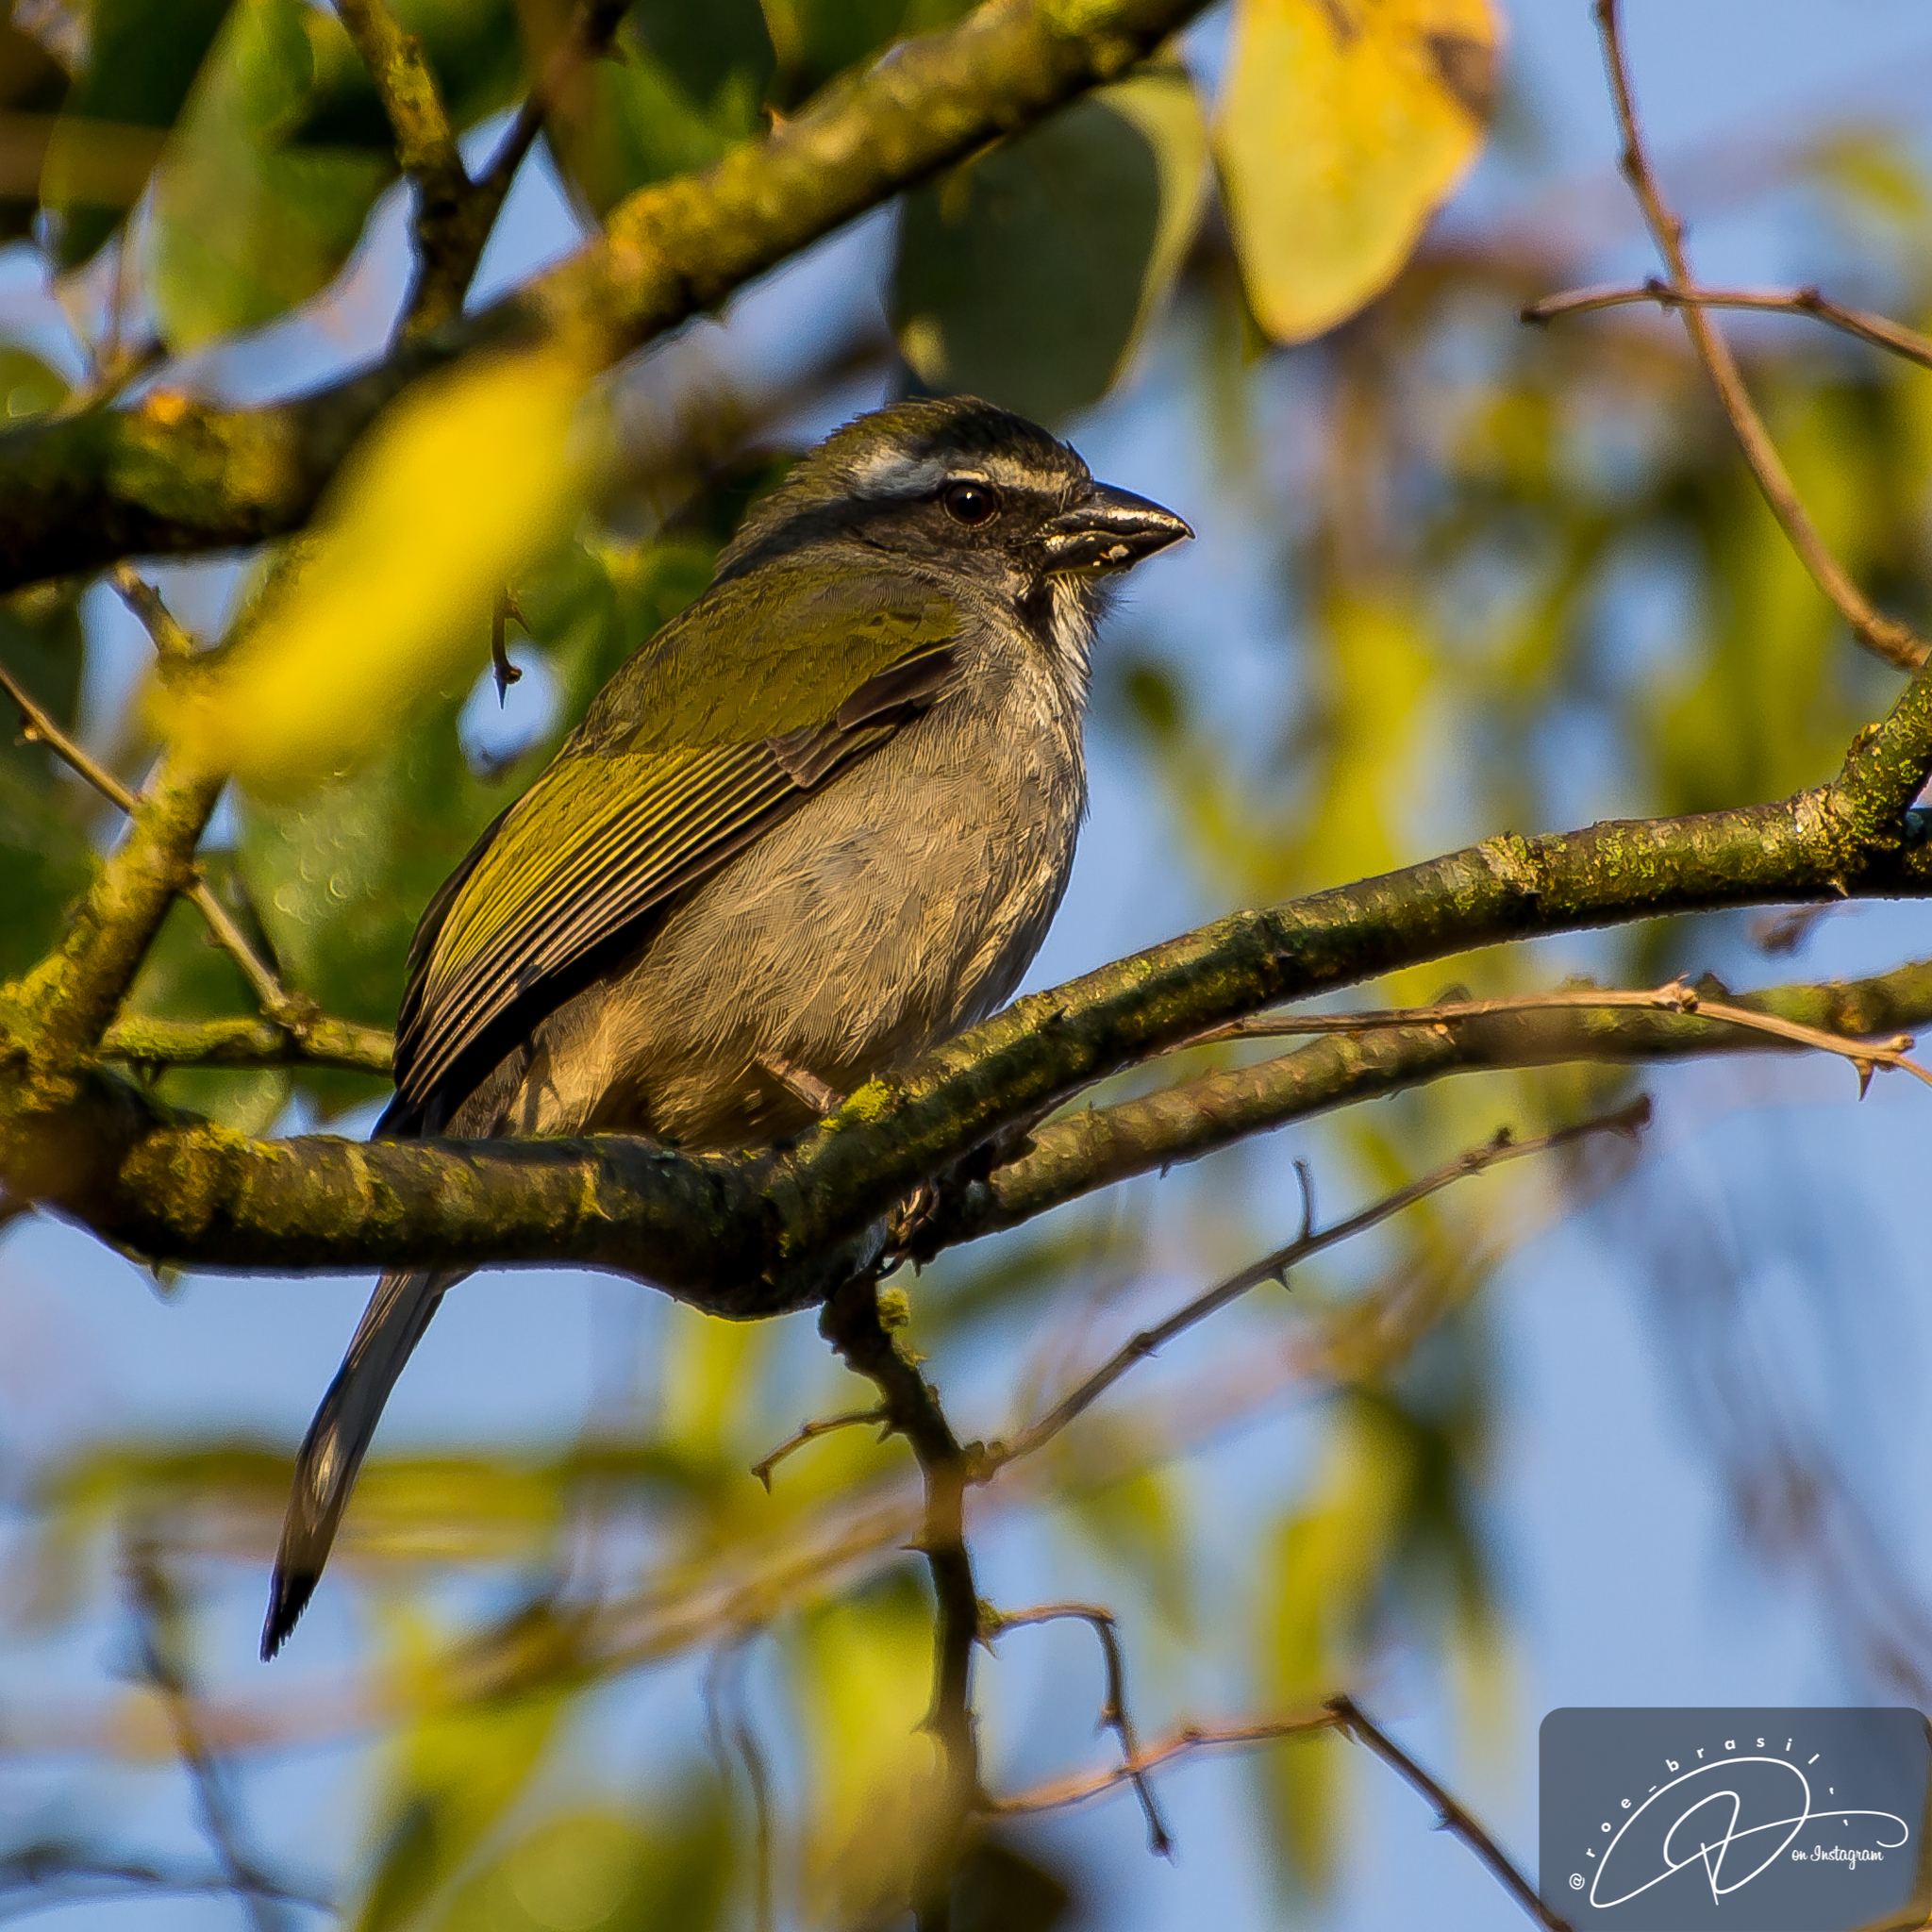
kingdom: Animalia
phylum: Chordata
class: Aves
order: Passeriformes
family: Thraupidae
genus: Saltator
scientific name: Saltator similis
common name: Green-winged saltator
